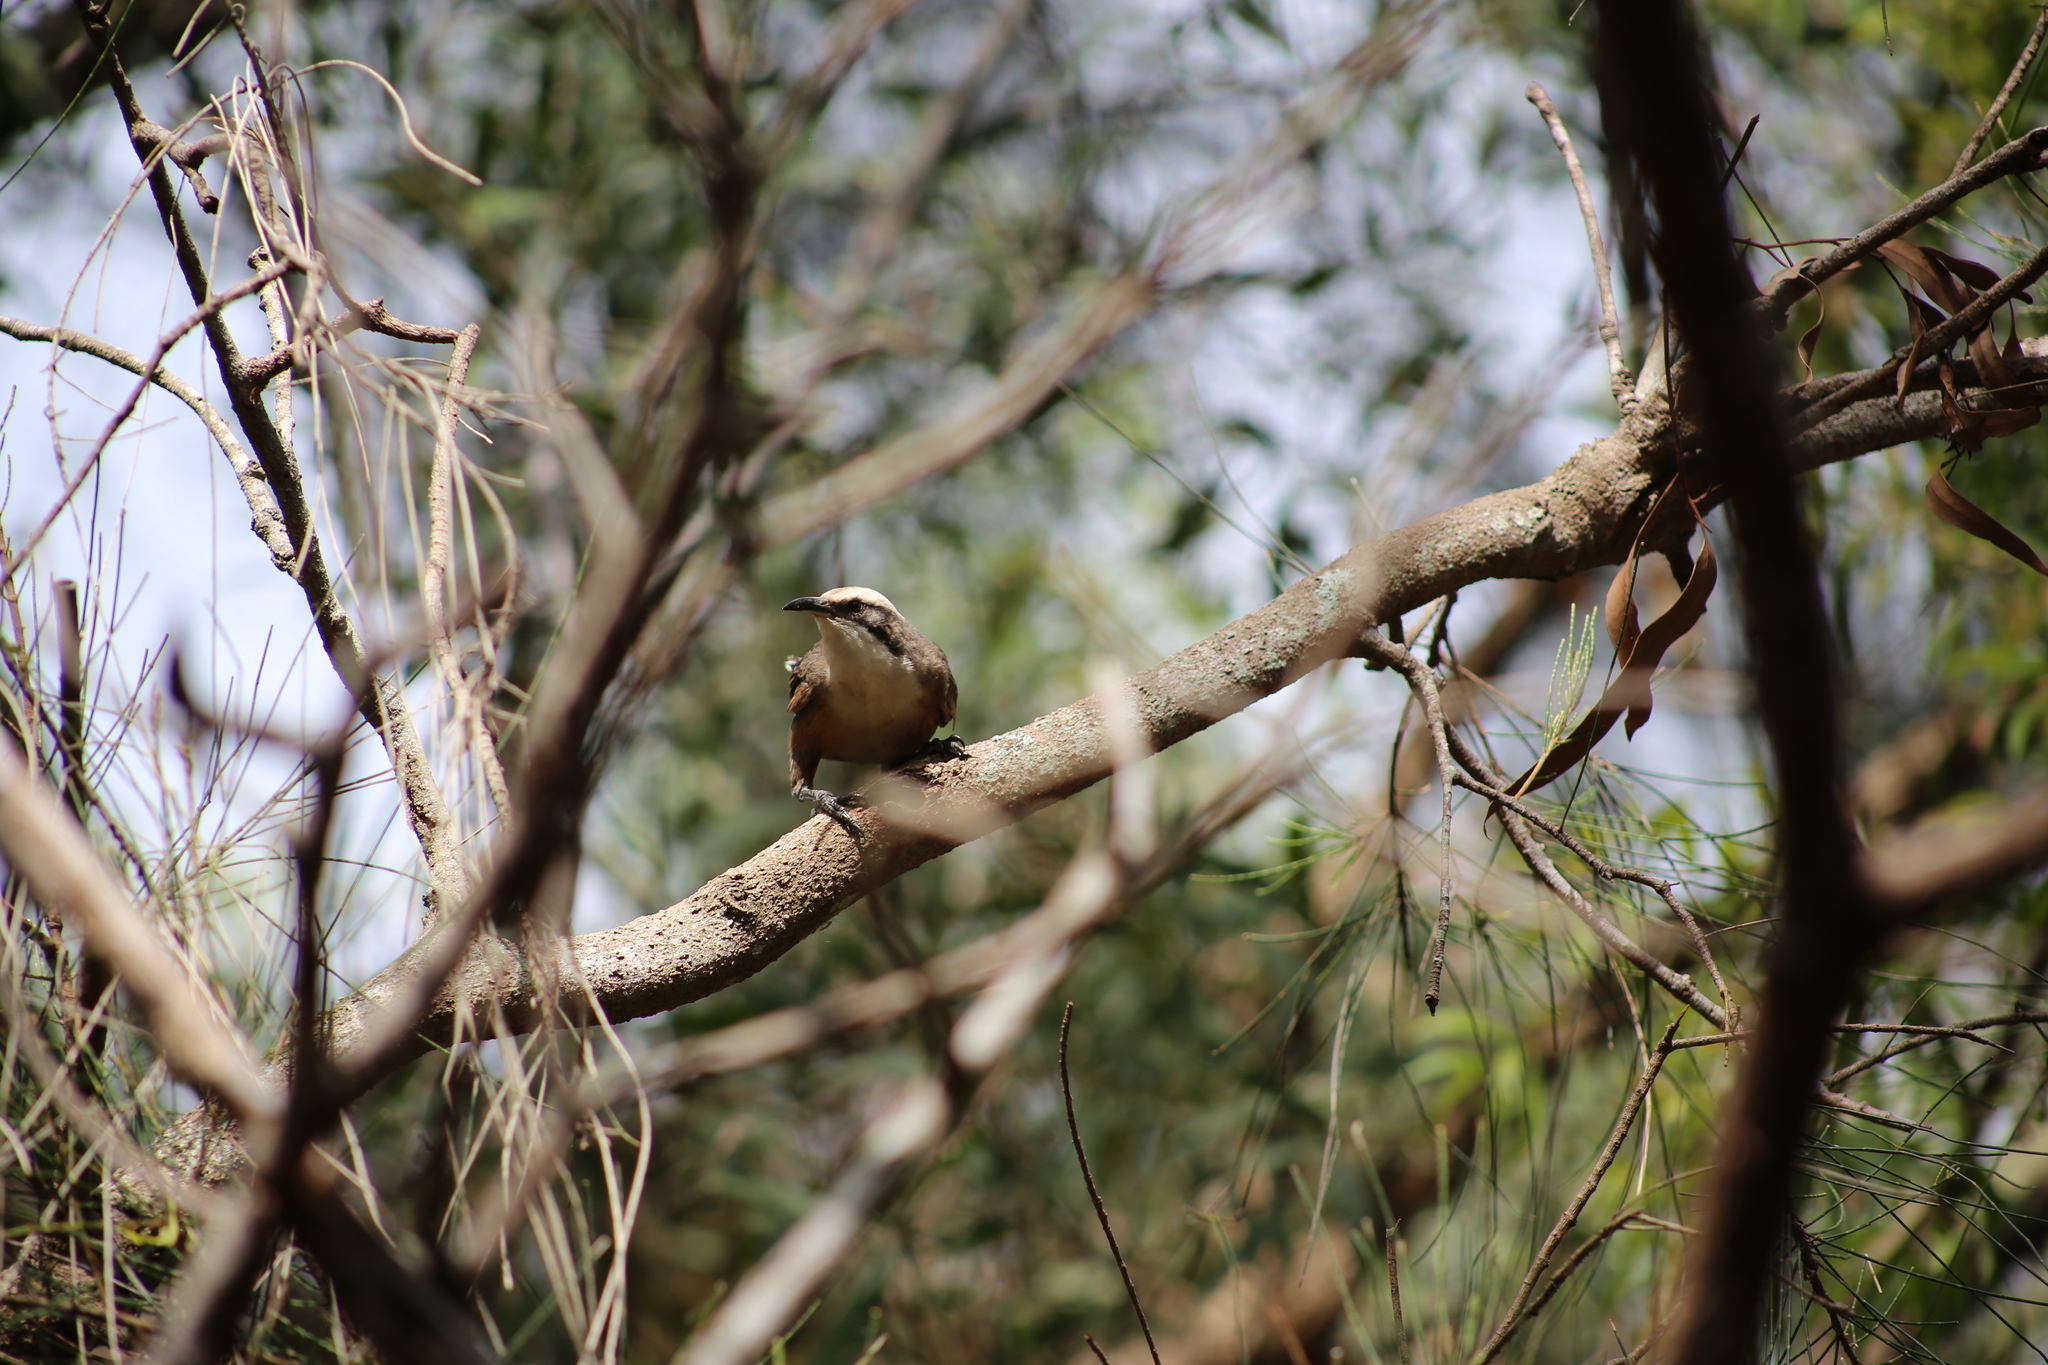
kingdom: Animalia
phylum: Chordata
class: Aves
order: Passeriformes
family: Pomatostomidae
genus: Pomatostomus
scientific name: Pomatostomus temporalis
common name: Grey-crowned babbler
